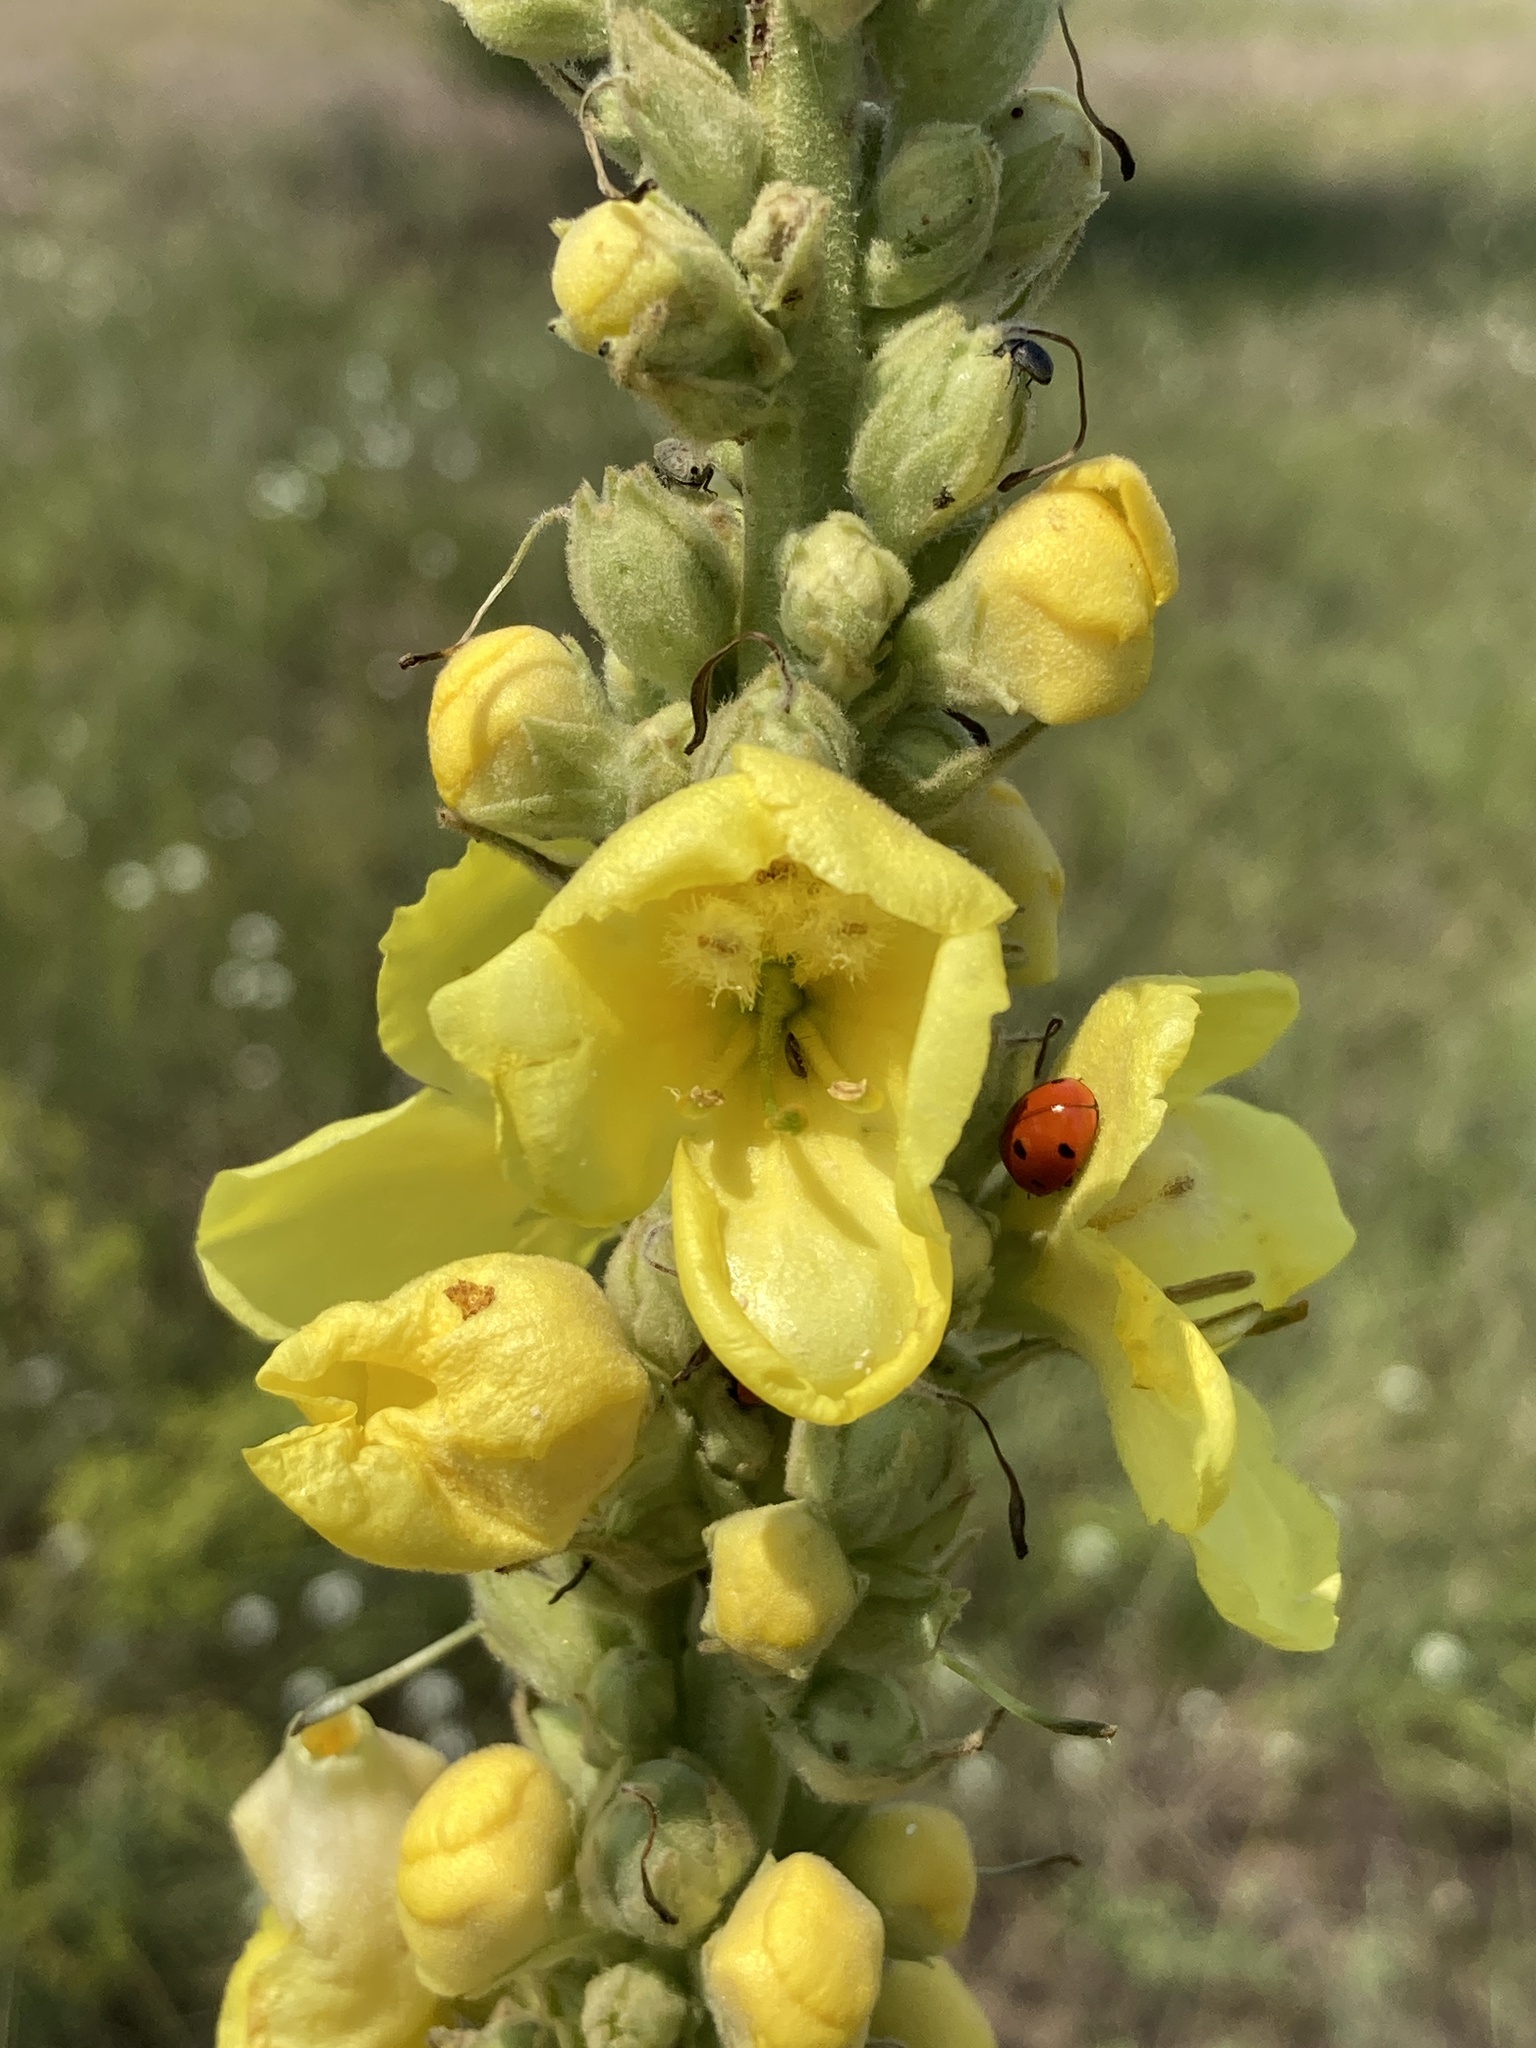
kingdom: Plantae
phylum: Tracheophyta
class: Magnoliopsida
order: Lamiales
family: Scrophulariaceae
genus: Verbascum
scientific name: Verbascum densiflorum
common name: Dense-flowered mullein
